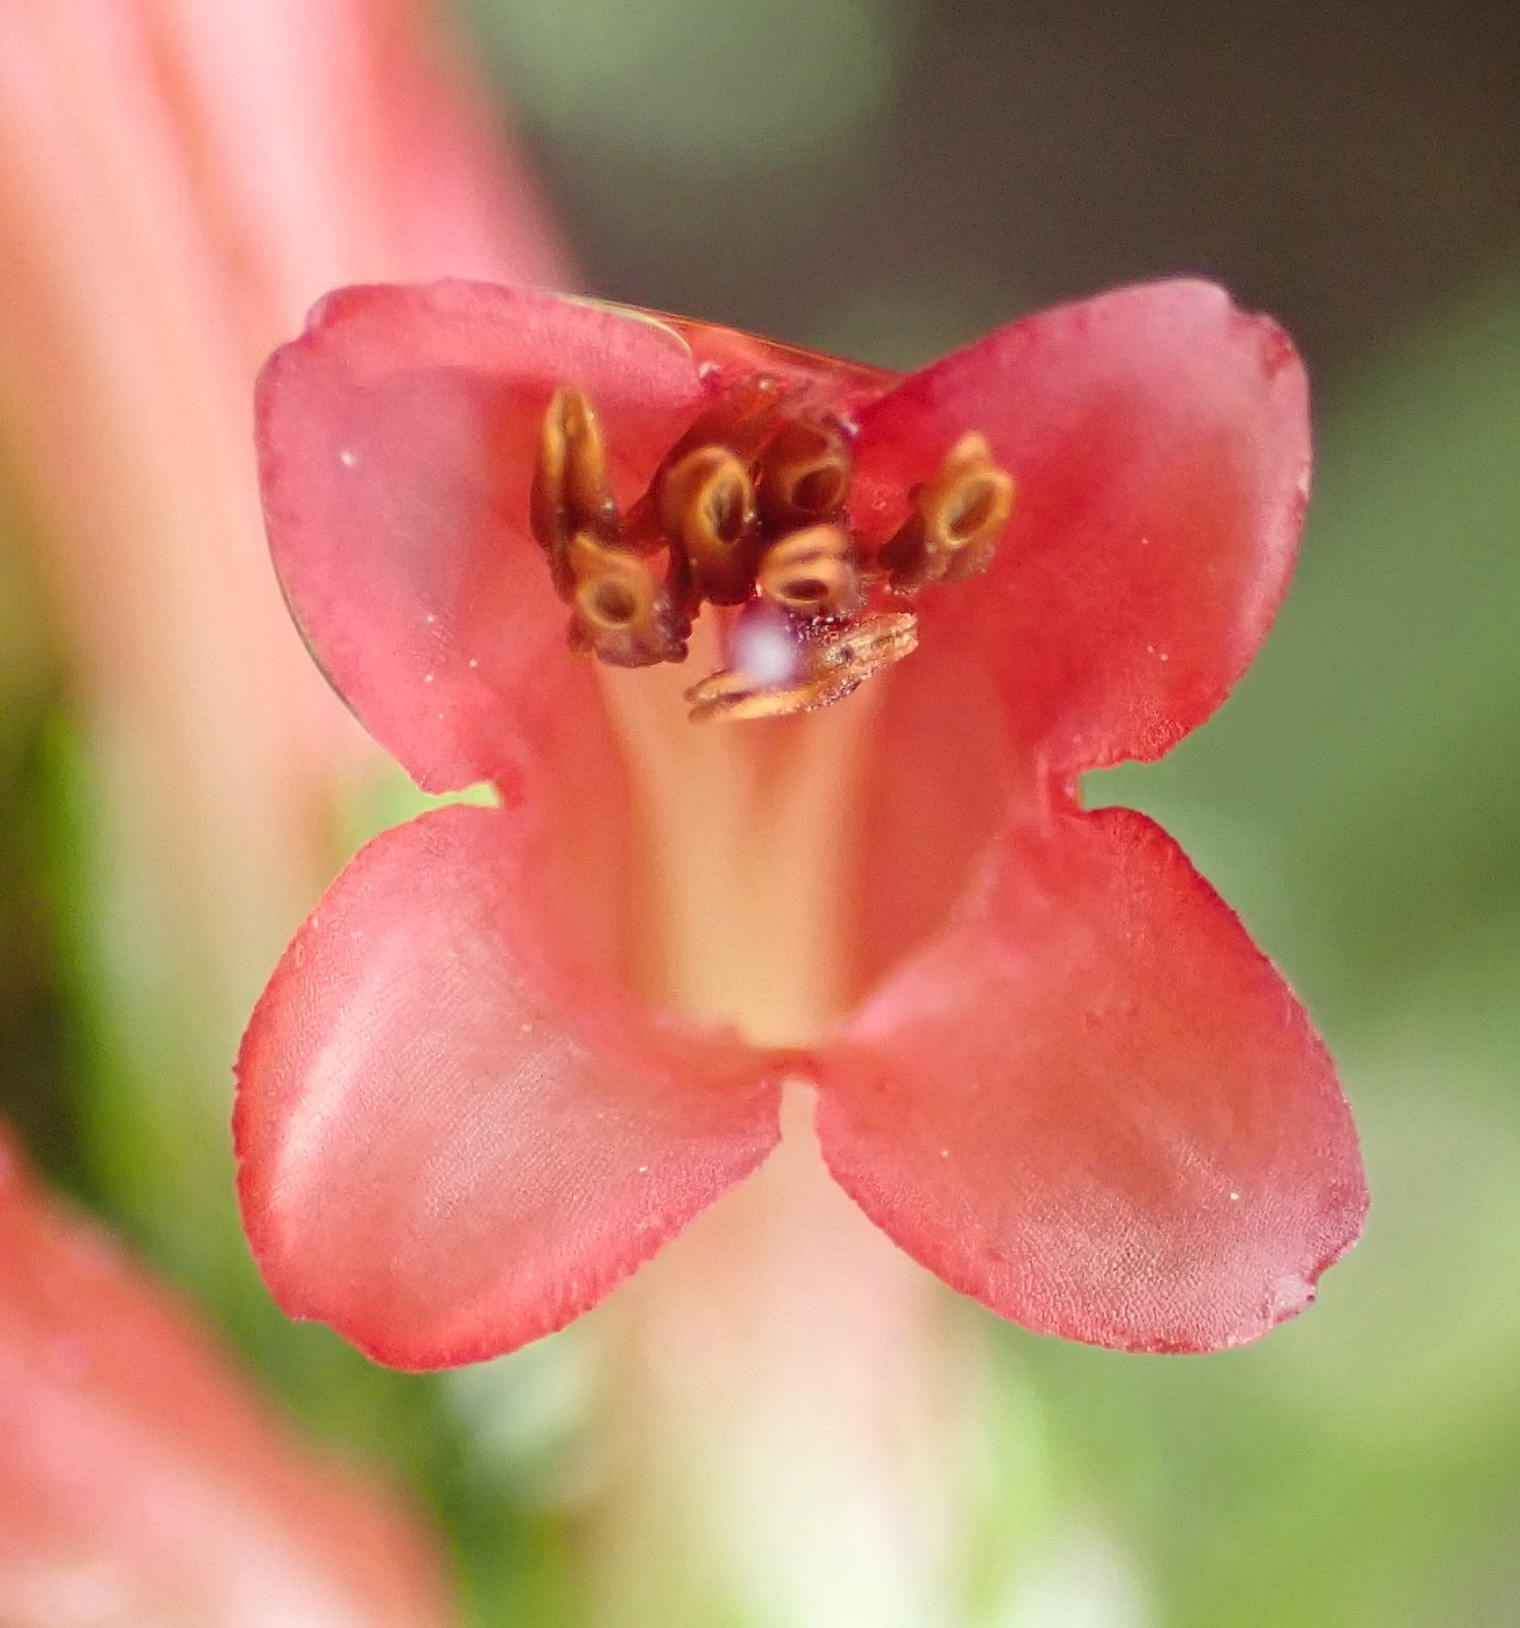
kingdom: Plantae
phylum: Tracheophyta
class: Magnoliopsida
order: Ericales
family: Ericaceae
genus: Erica
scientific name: Erica curviflora
